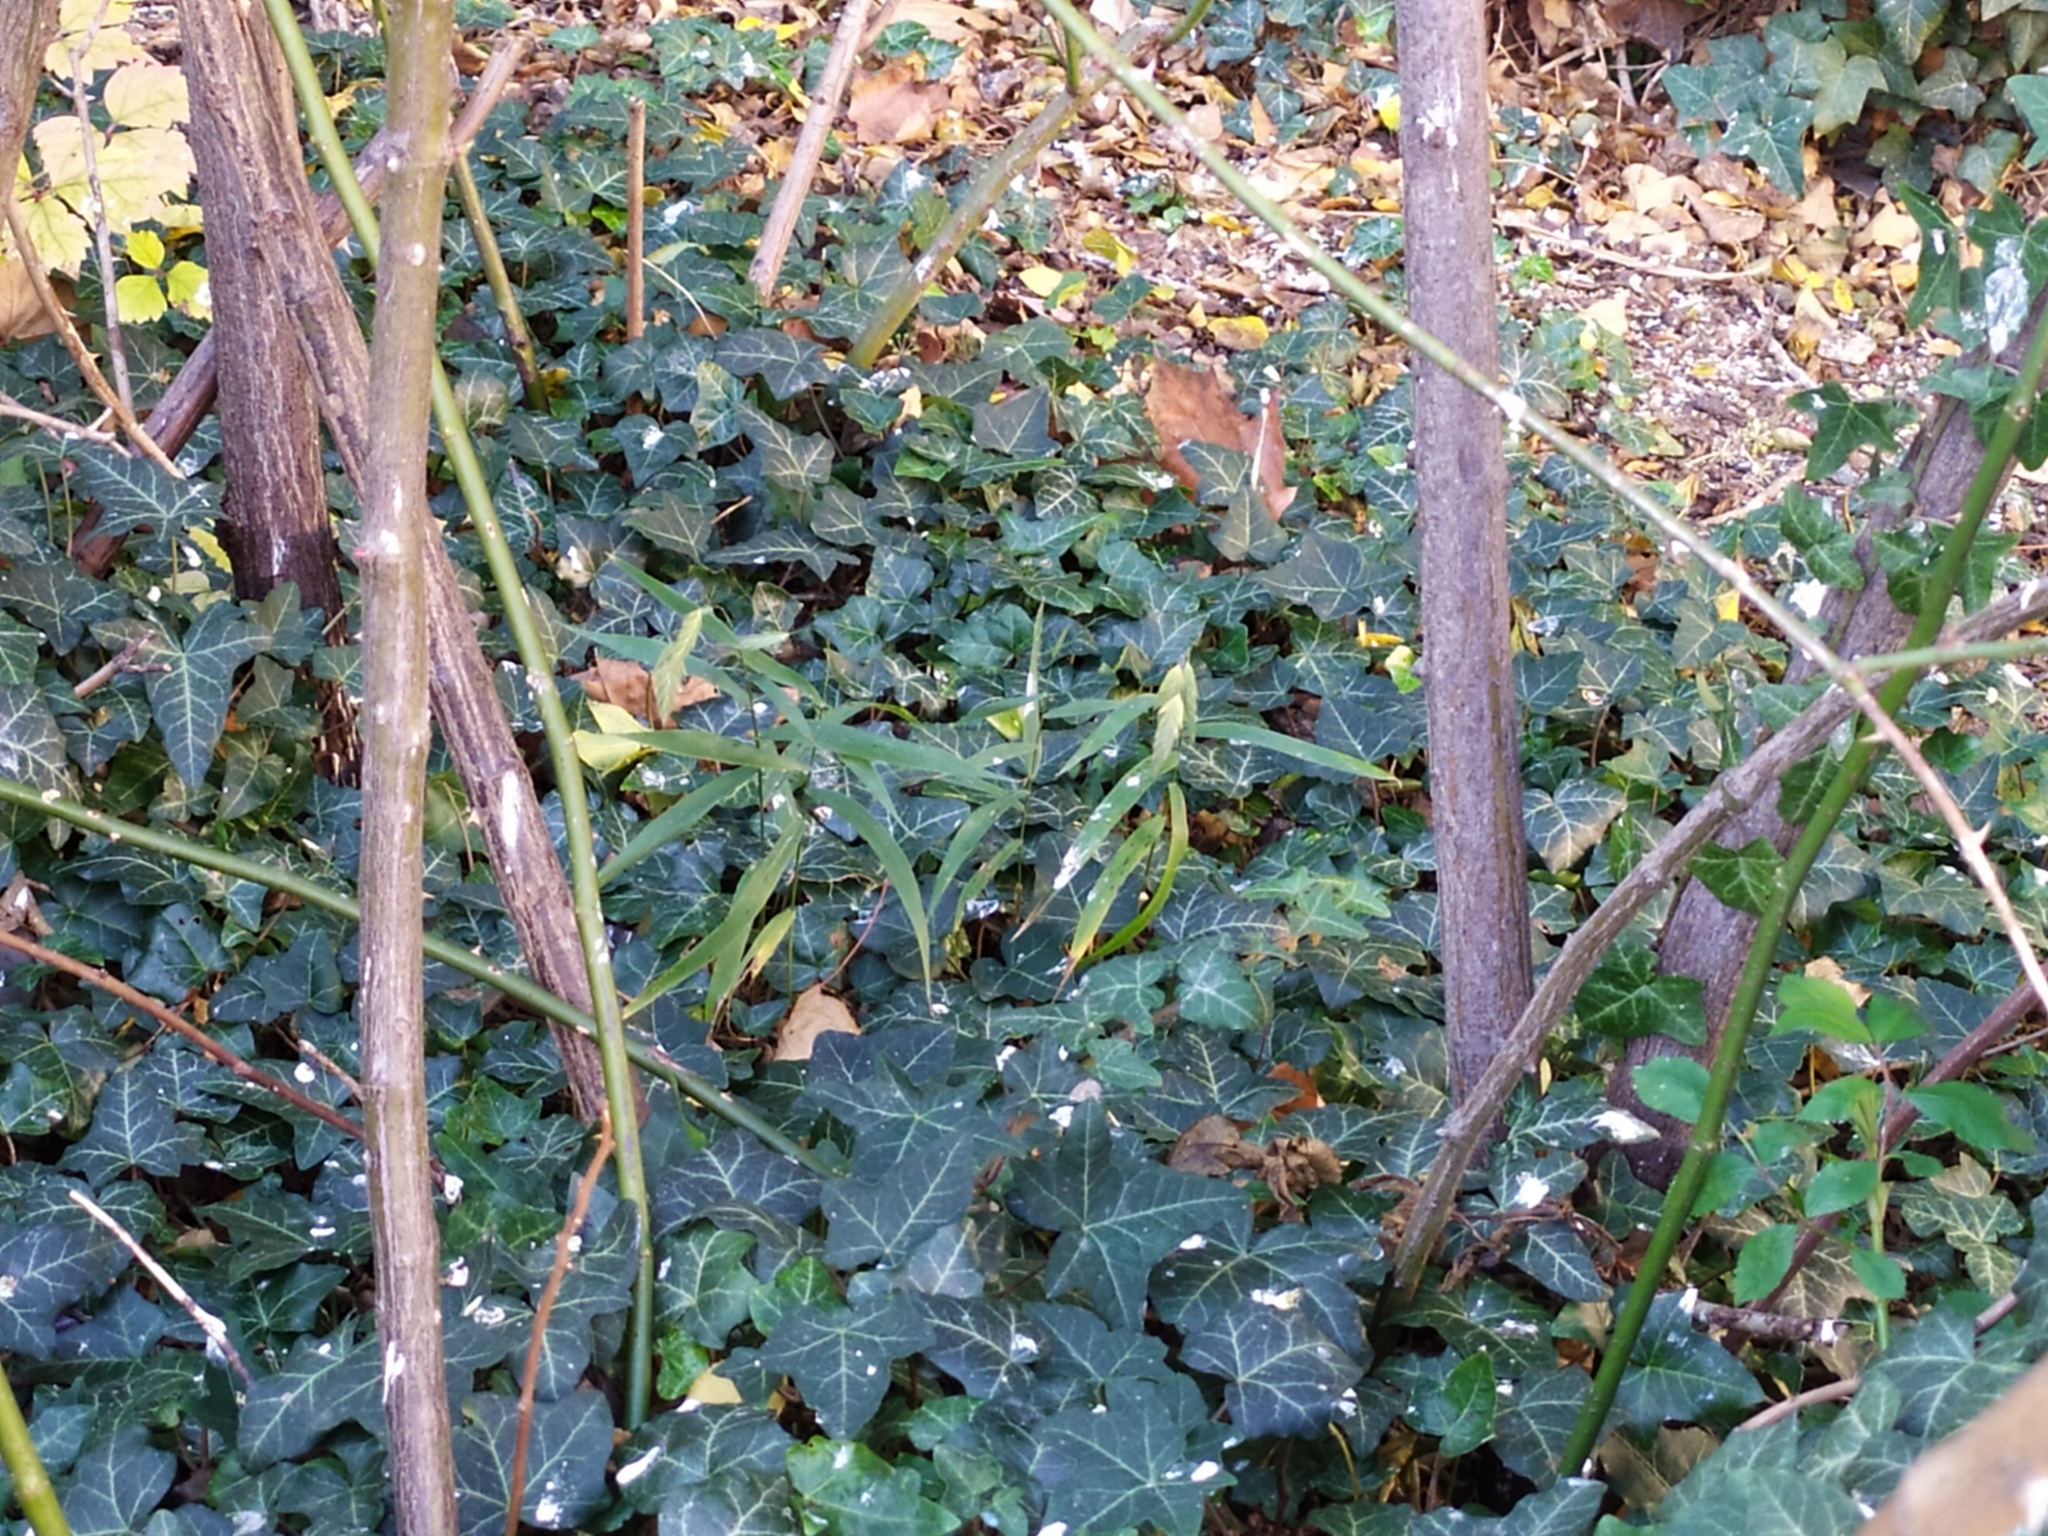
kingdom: Plantae
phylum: Tracheophyta
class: Liliopsida
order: Poales
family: Poaceae
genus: Chasmanthium
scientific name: Chasmanthium latifolium
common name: Broad-leaved chasmanthium
